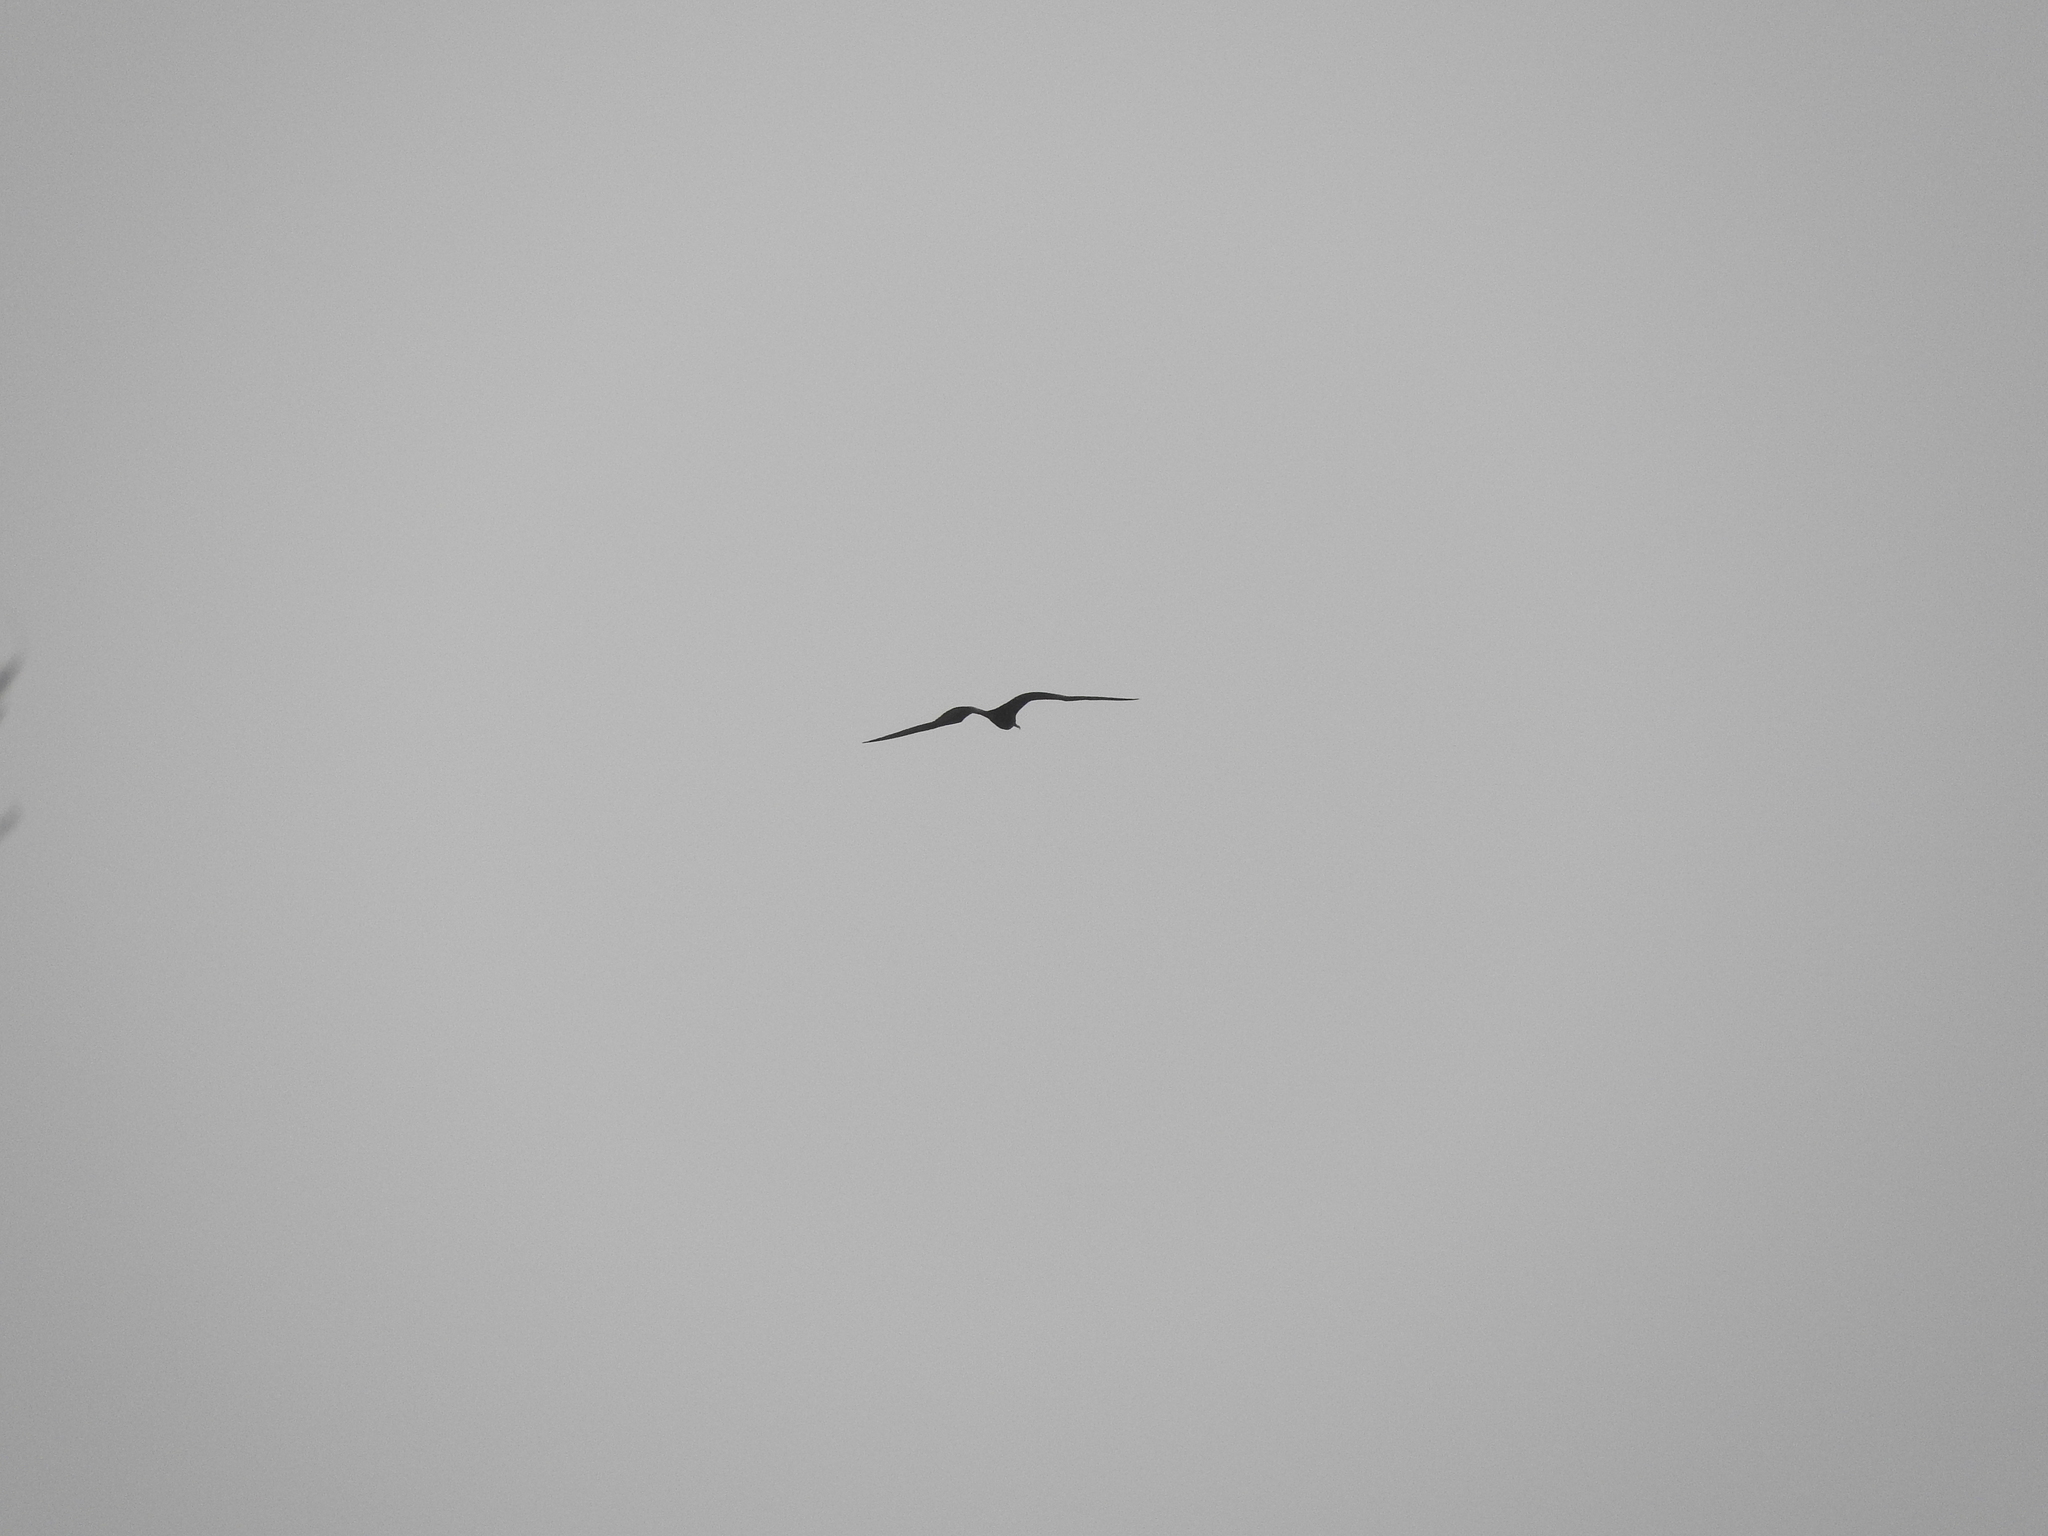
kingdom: Animalia
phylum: Chordata
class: Aves
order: Suliformes
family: Fregatidae
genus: Fregata
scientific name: Fregata magnificens
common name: Magnificent frigatebird
